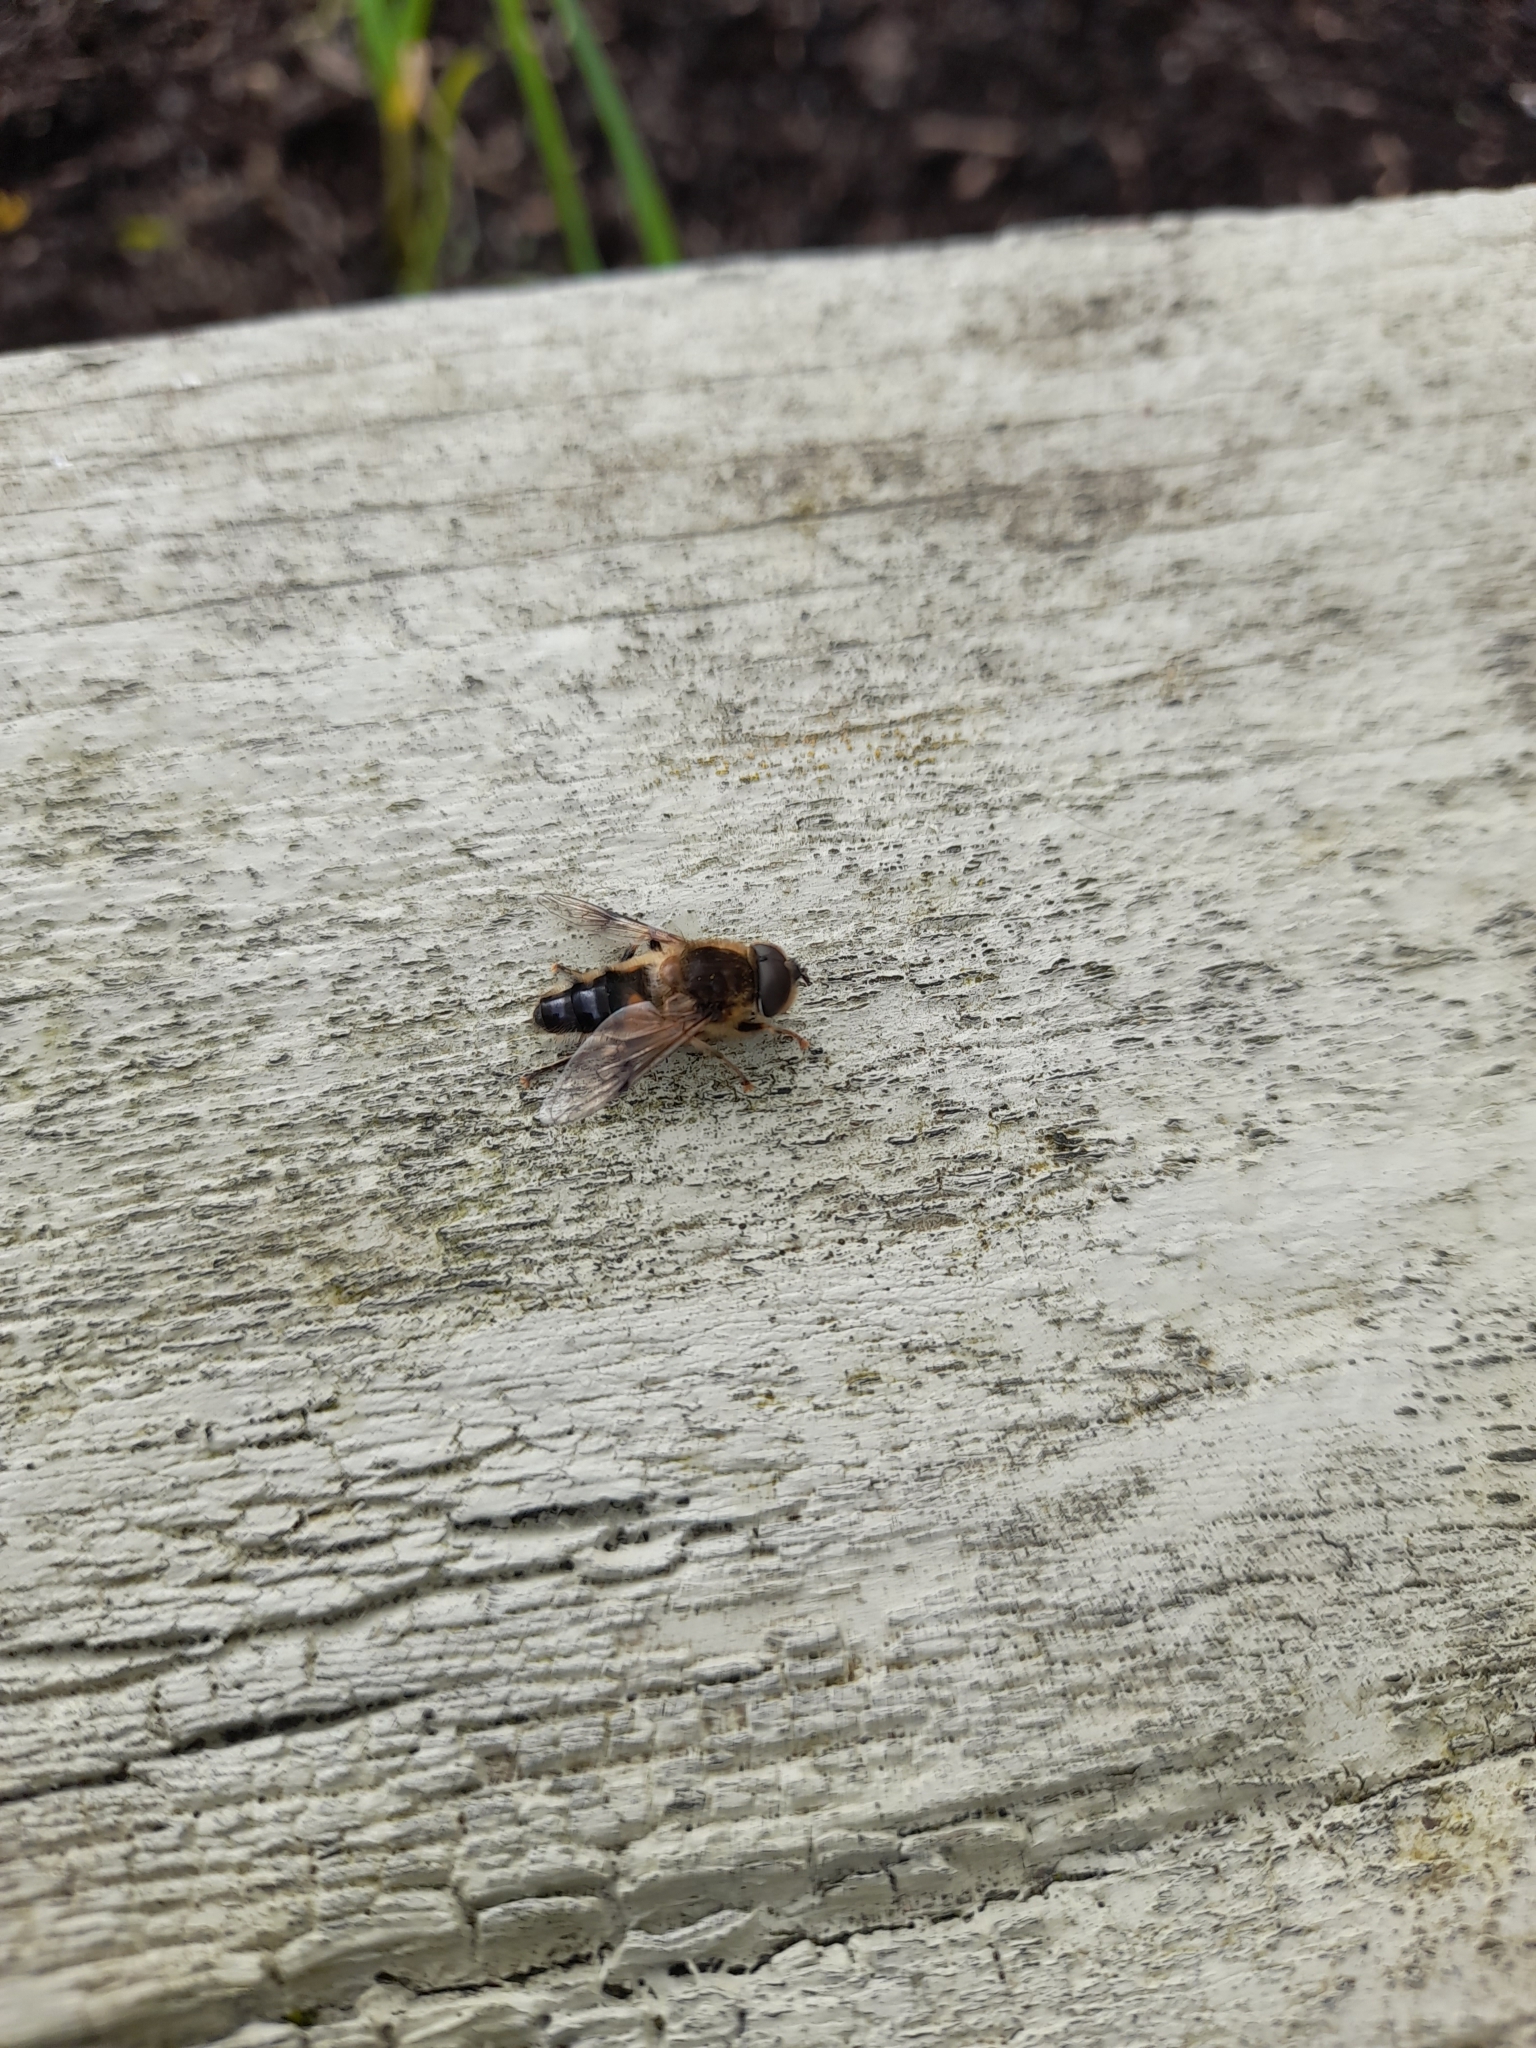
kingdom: Animalia
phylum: Arthropoda
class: Insecta
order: Diptera
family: Syrphidae
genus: Eristalis
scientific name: Eristalis pertinax
